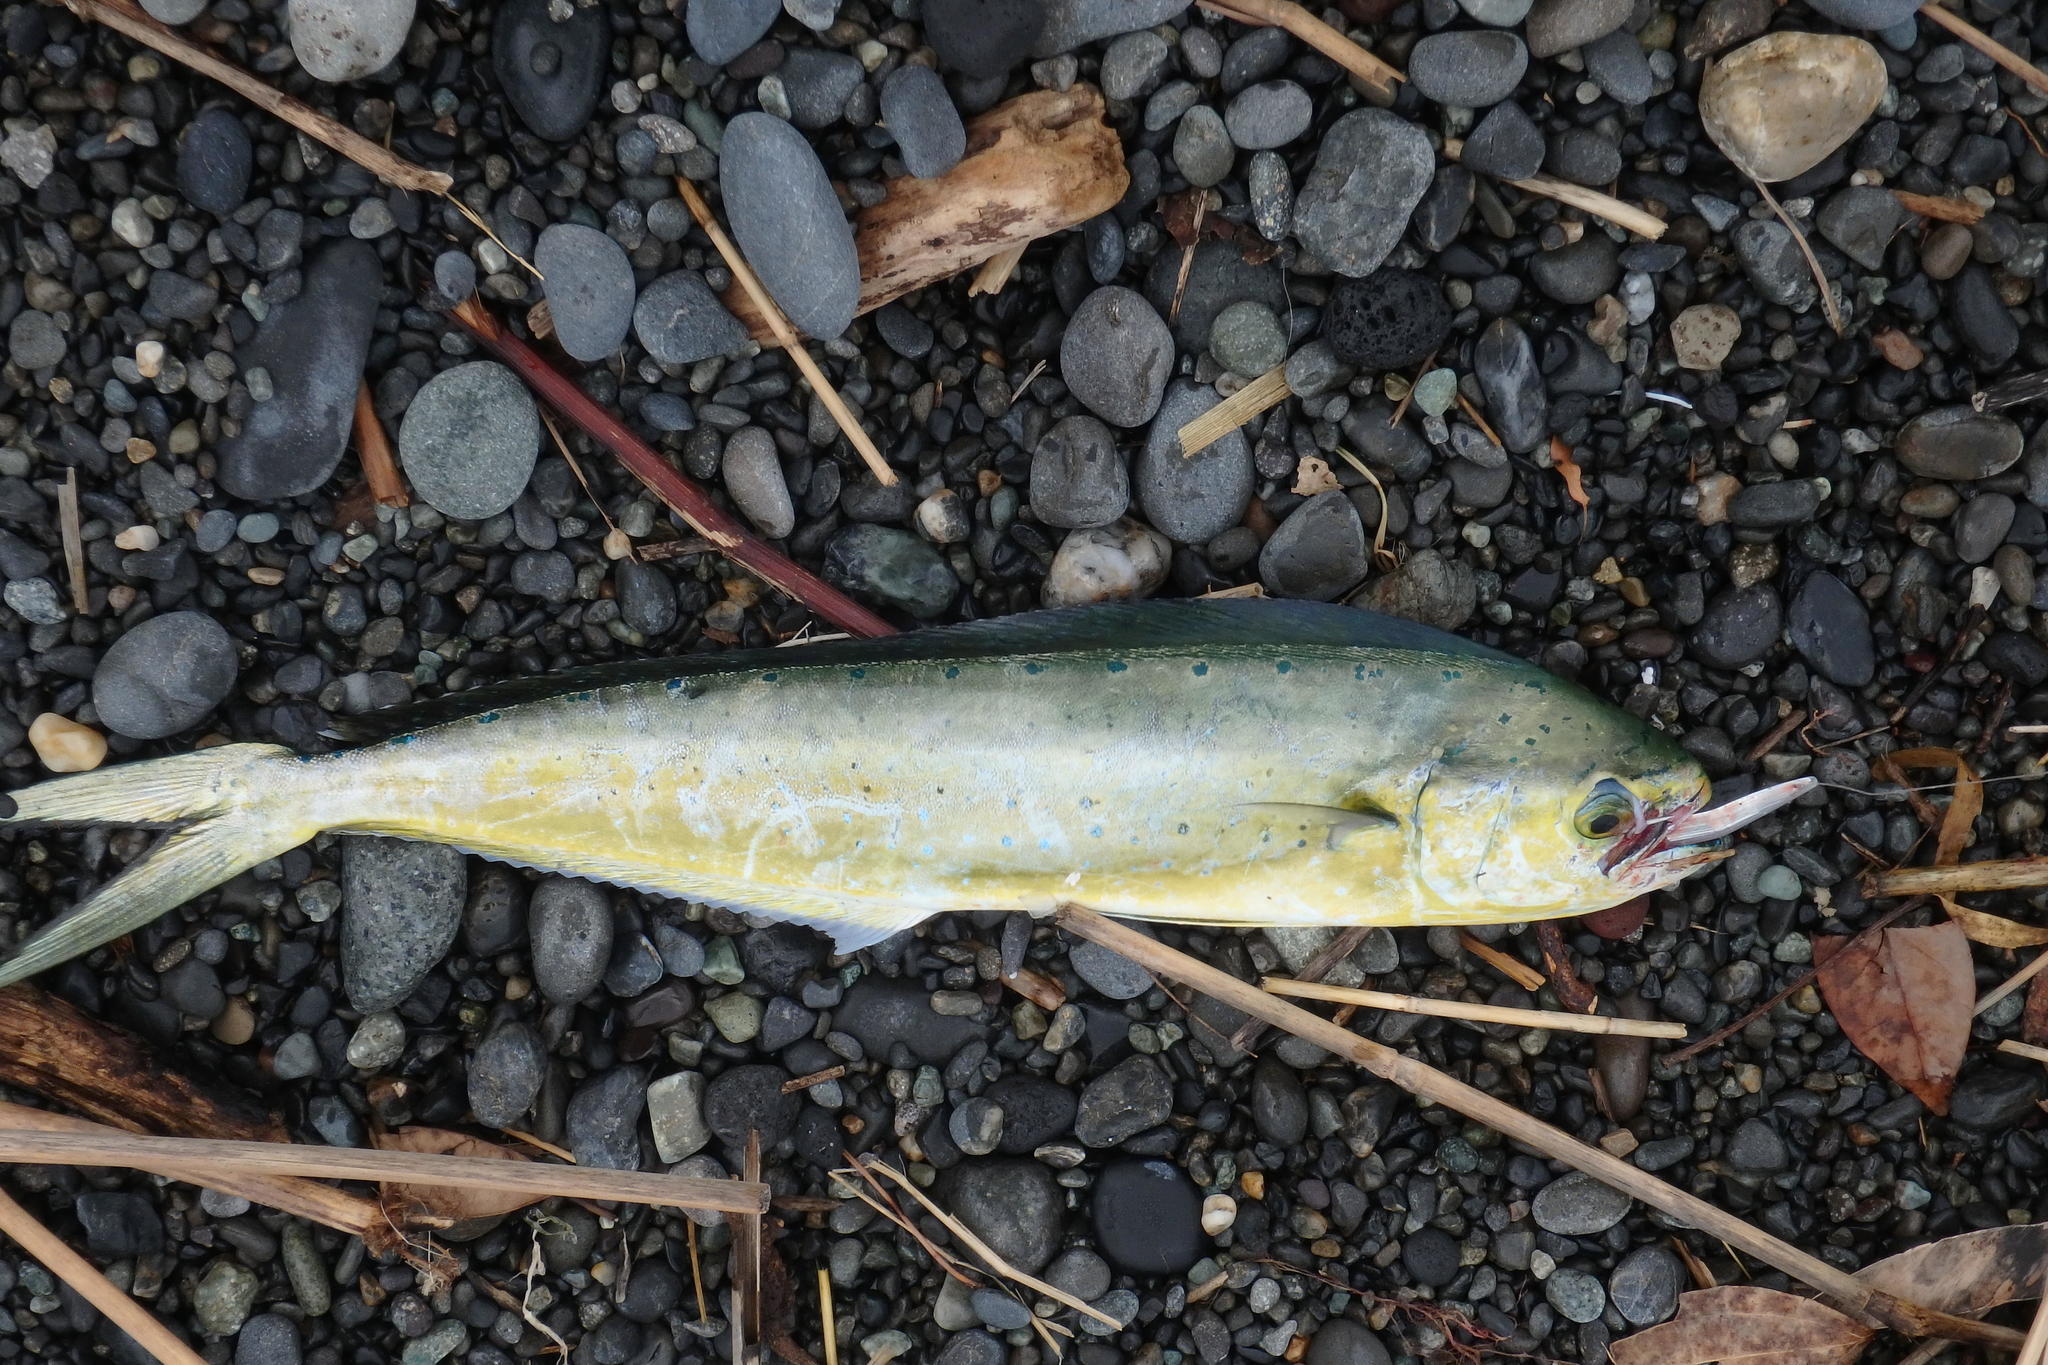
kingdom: Animalia
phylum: Chordata
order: Perciformes
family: Coryphaenidae
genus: Coryphaena
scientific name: Coryphaena hippurus
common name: Dolphin
